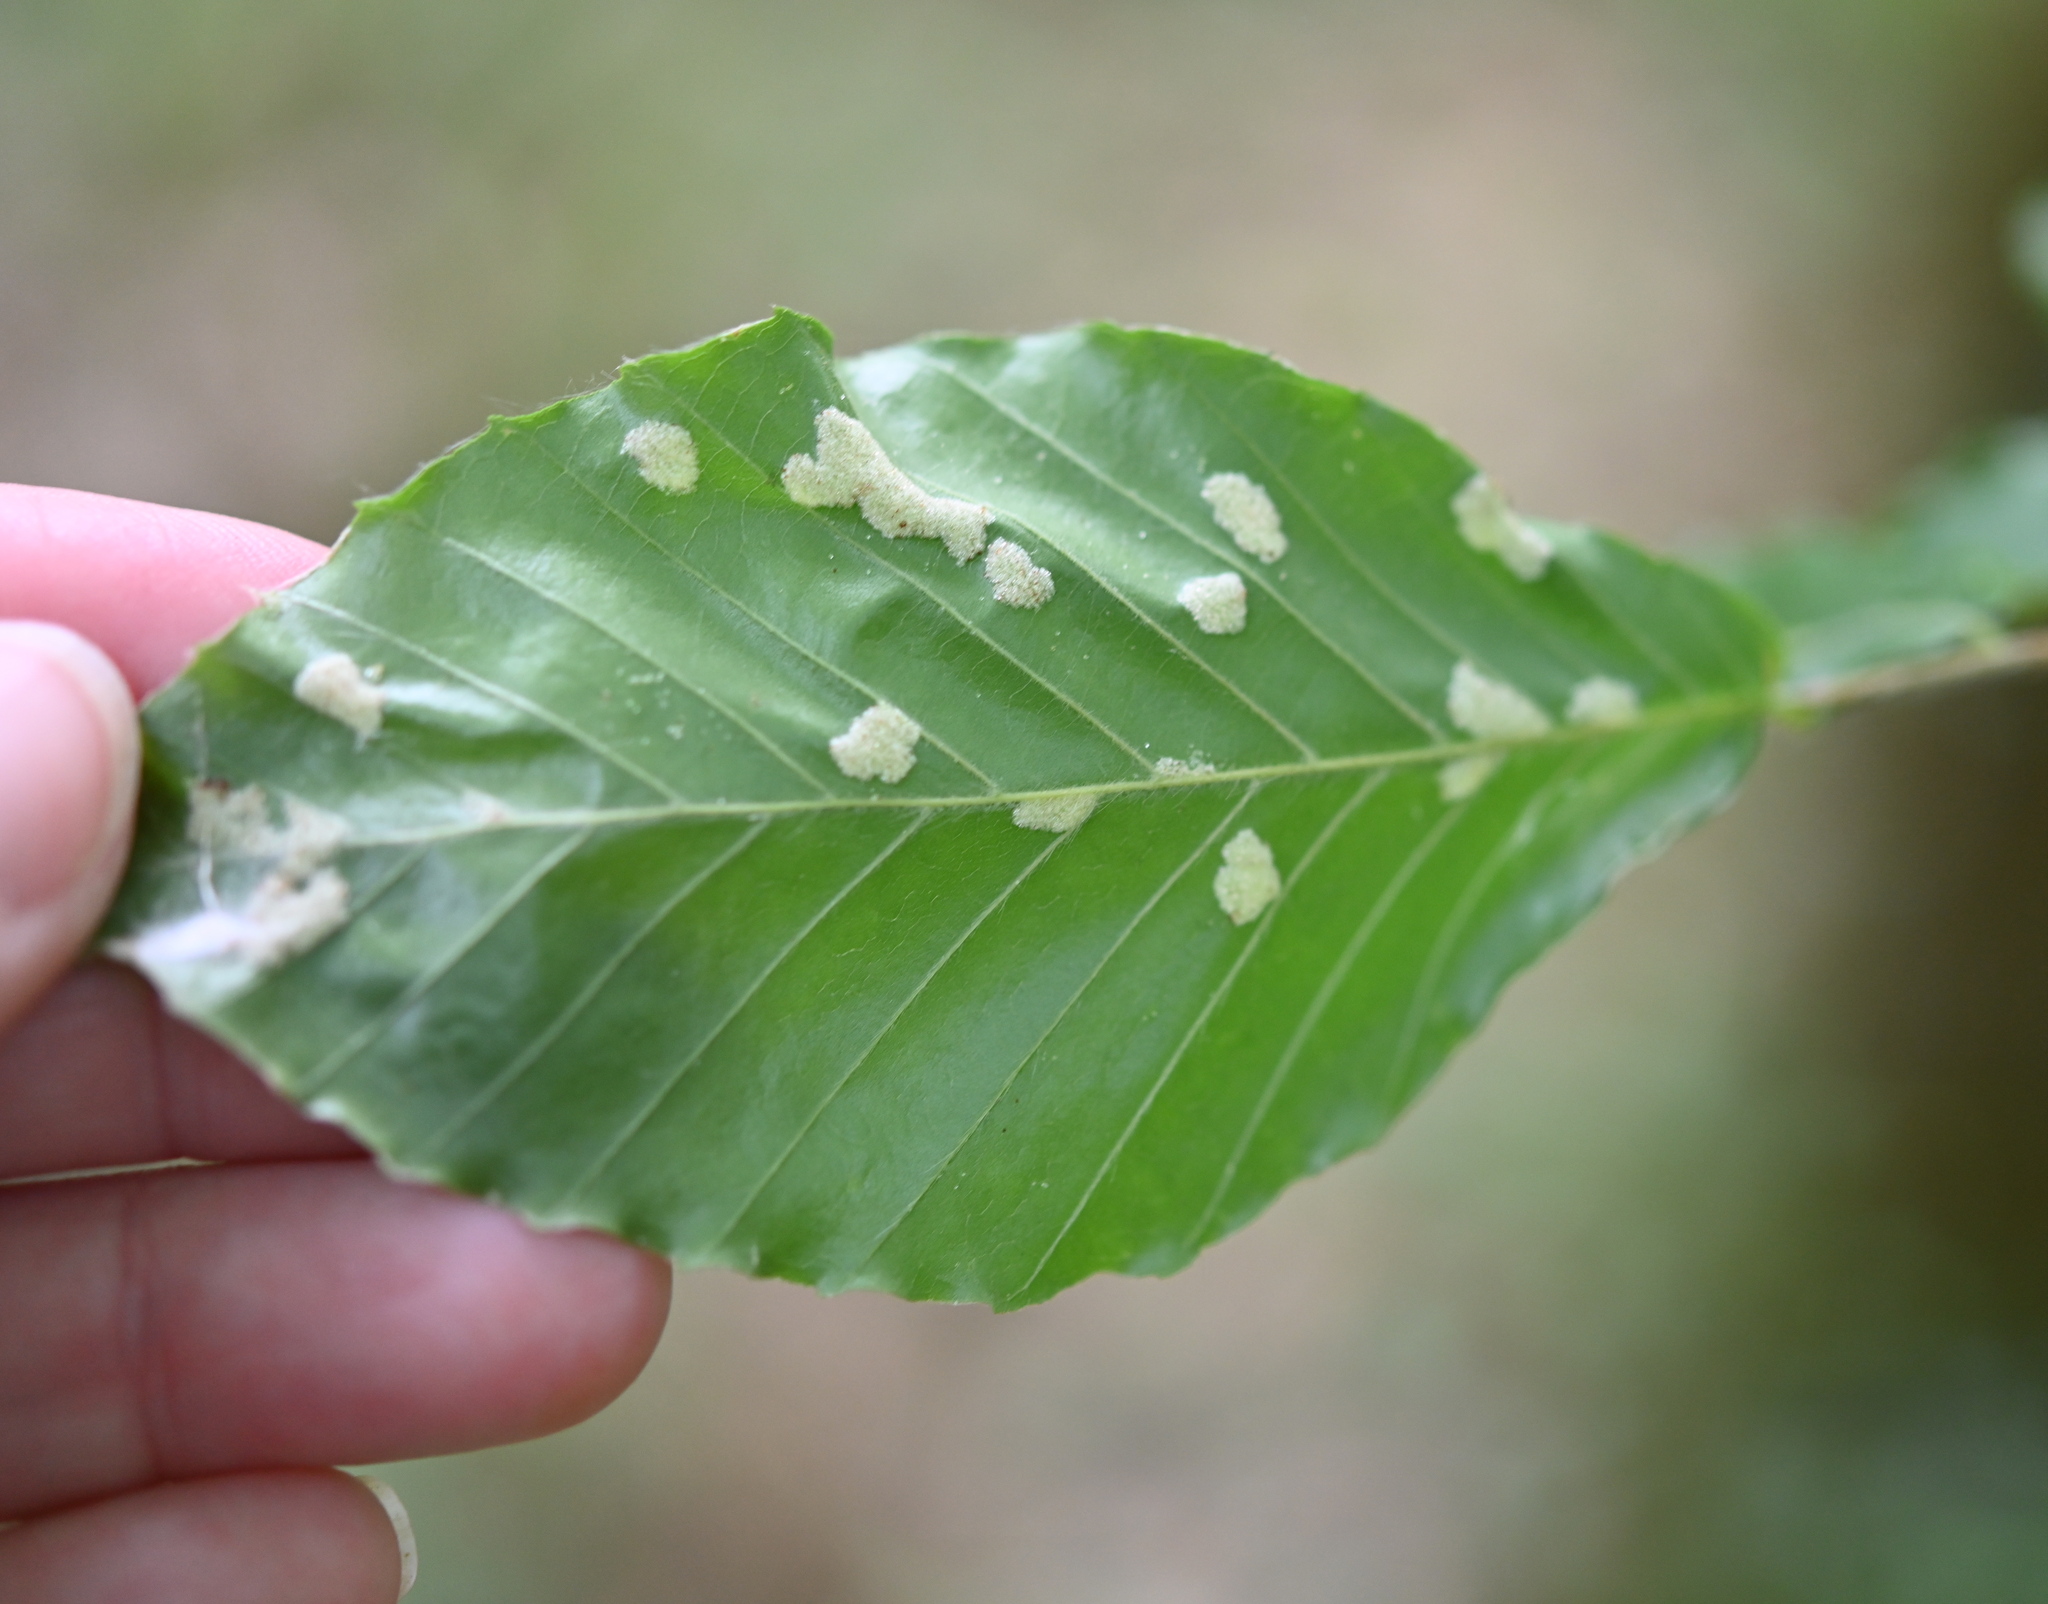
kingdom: Animalia
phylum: Arthropoda
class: Arachnida
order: Trombidiformes
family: Eriophyidae
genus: Acalitus
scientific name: Acalitus
